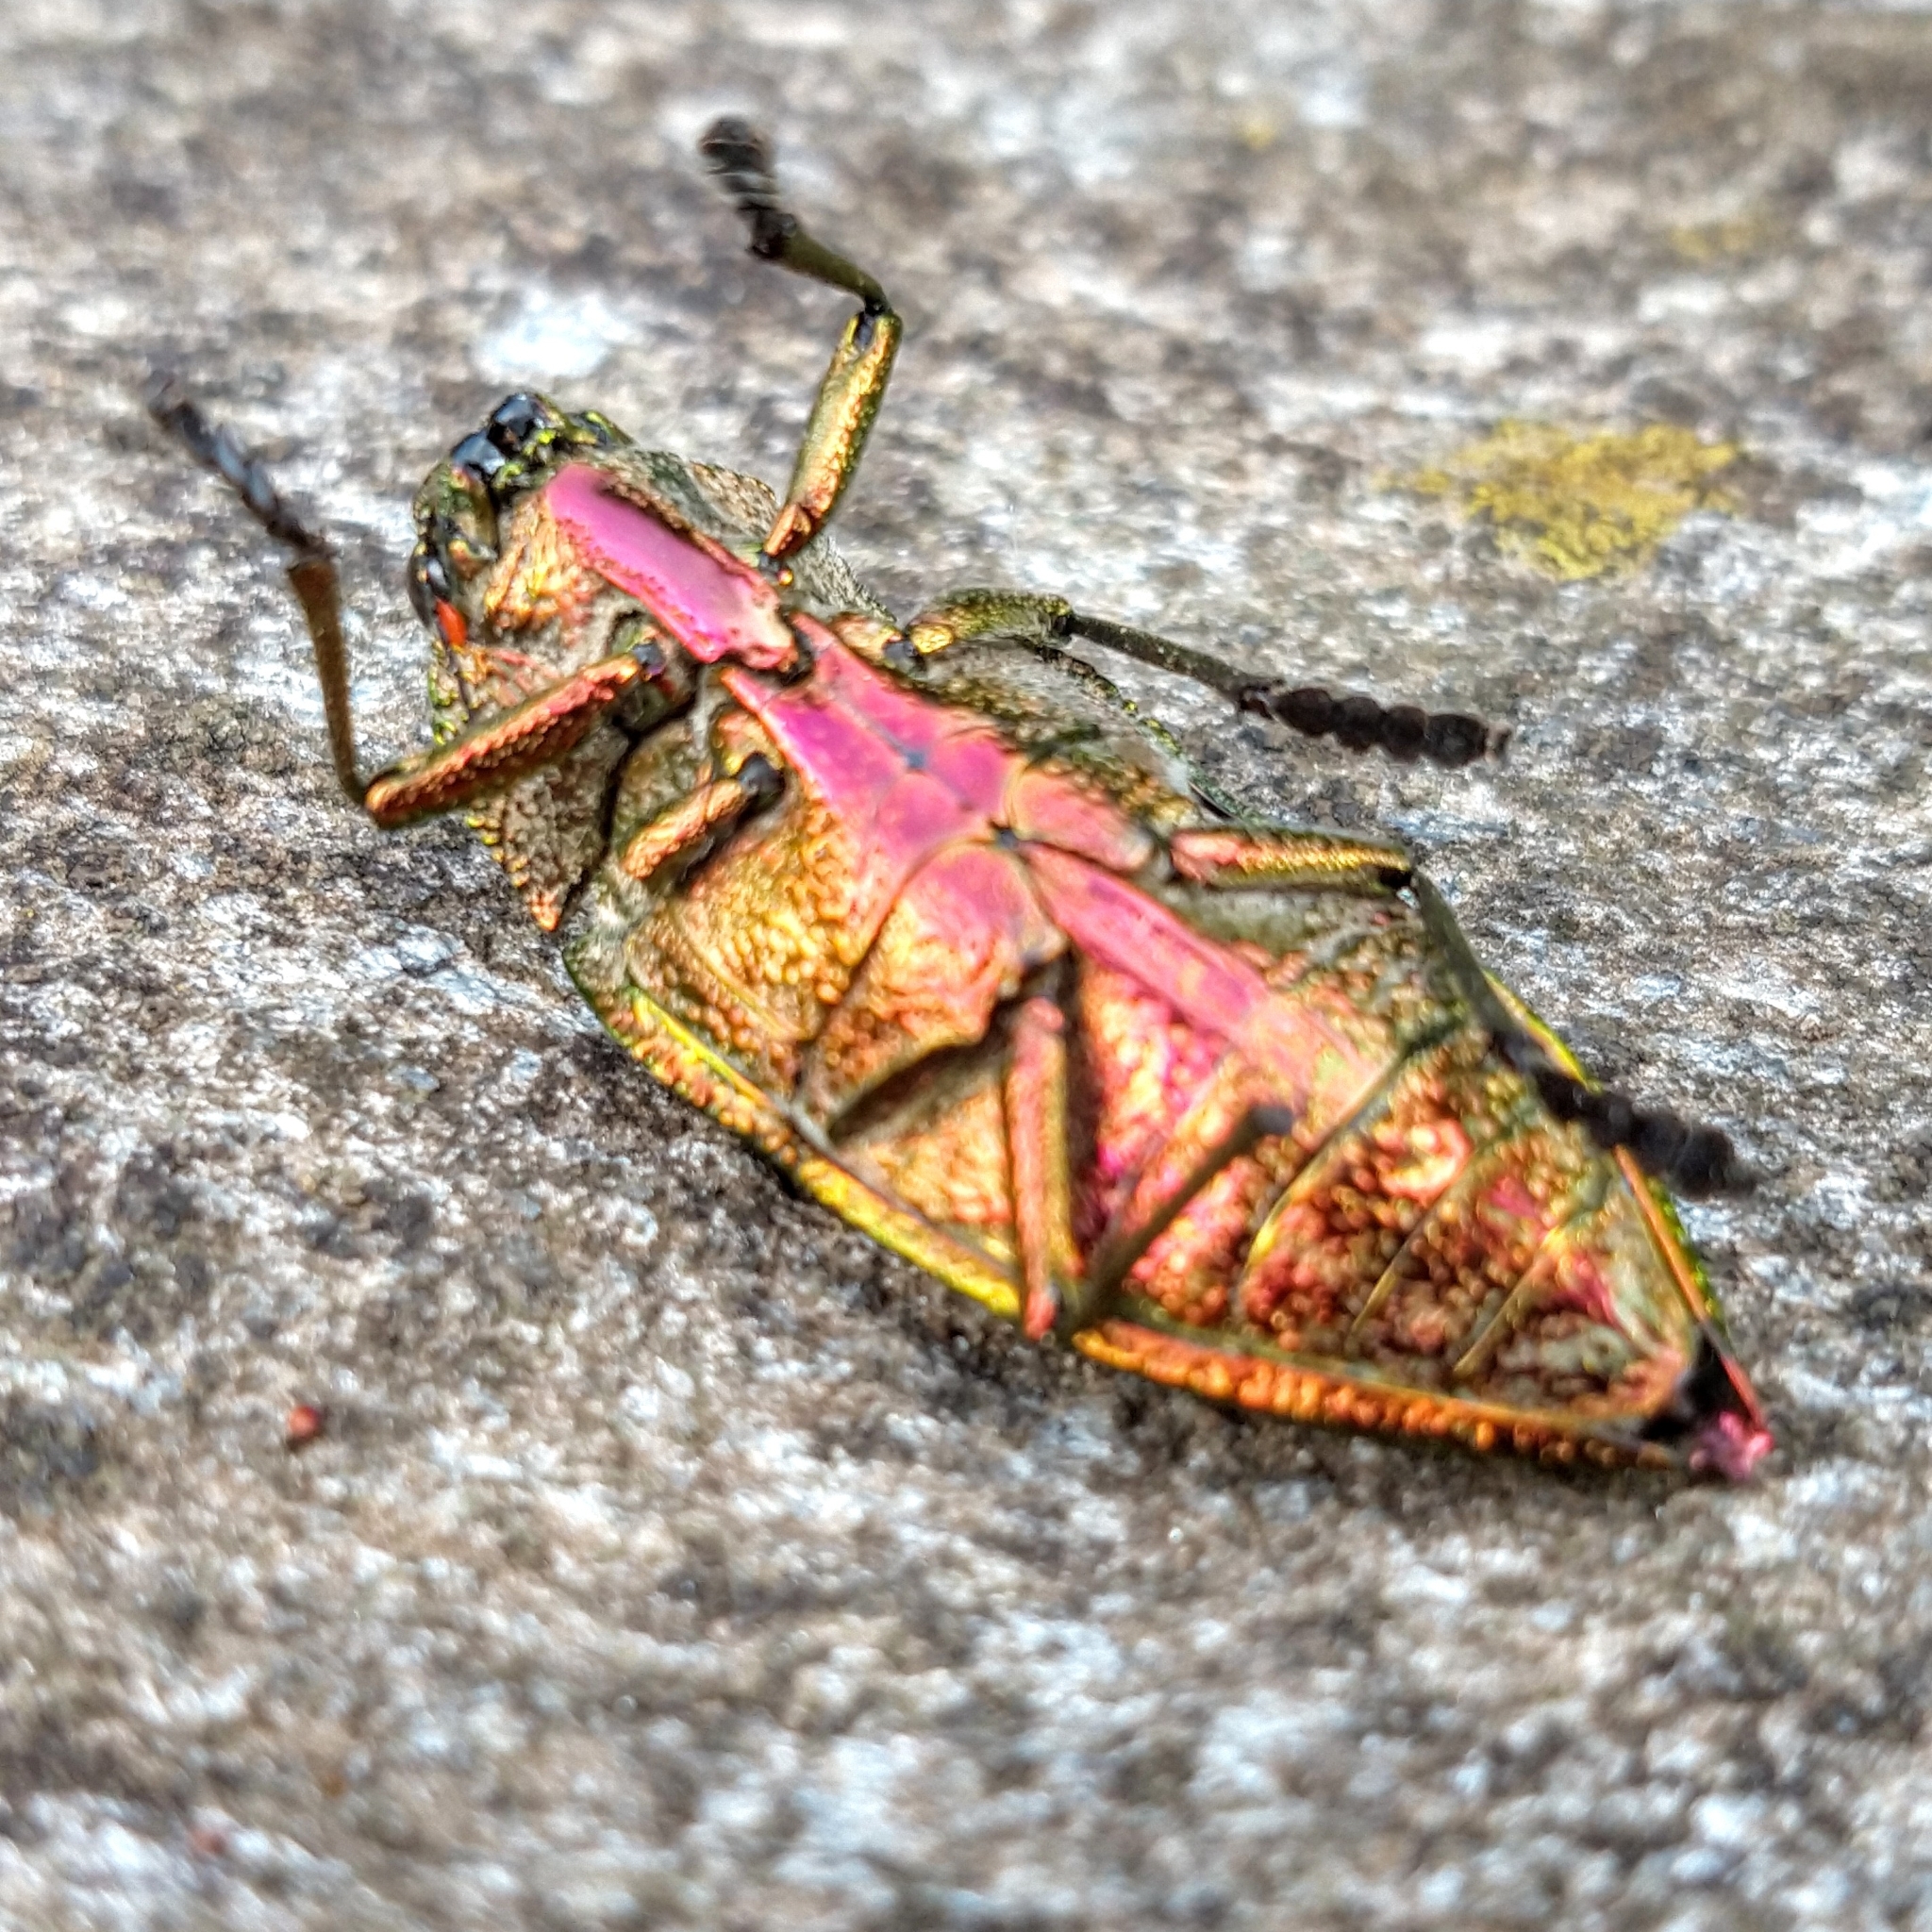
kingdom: Animalia
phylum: Arthropoda
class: Insecta
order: Coleoptera
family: Buprestidae
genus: Psiloptera
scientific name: Psiloptera assimilis
